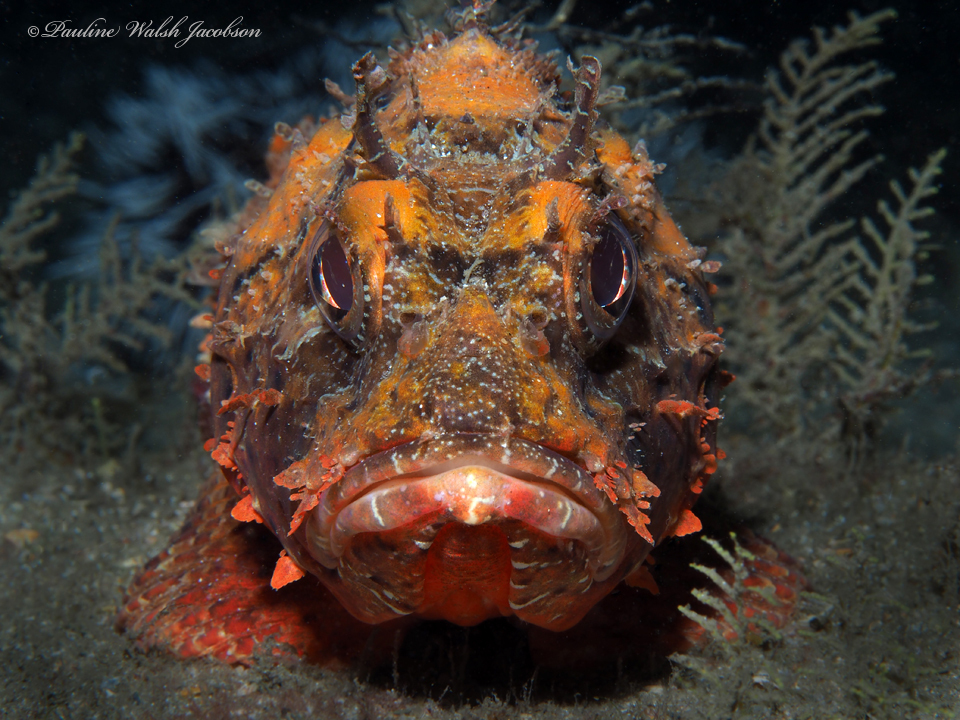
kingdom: Animalia
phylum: Chordata
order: Scorpaeniformes
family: Scorpaenidae
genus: Scorpaena
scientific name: Scorpaena brasiliensis
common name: Barbfish
